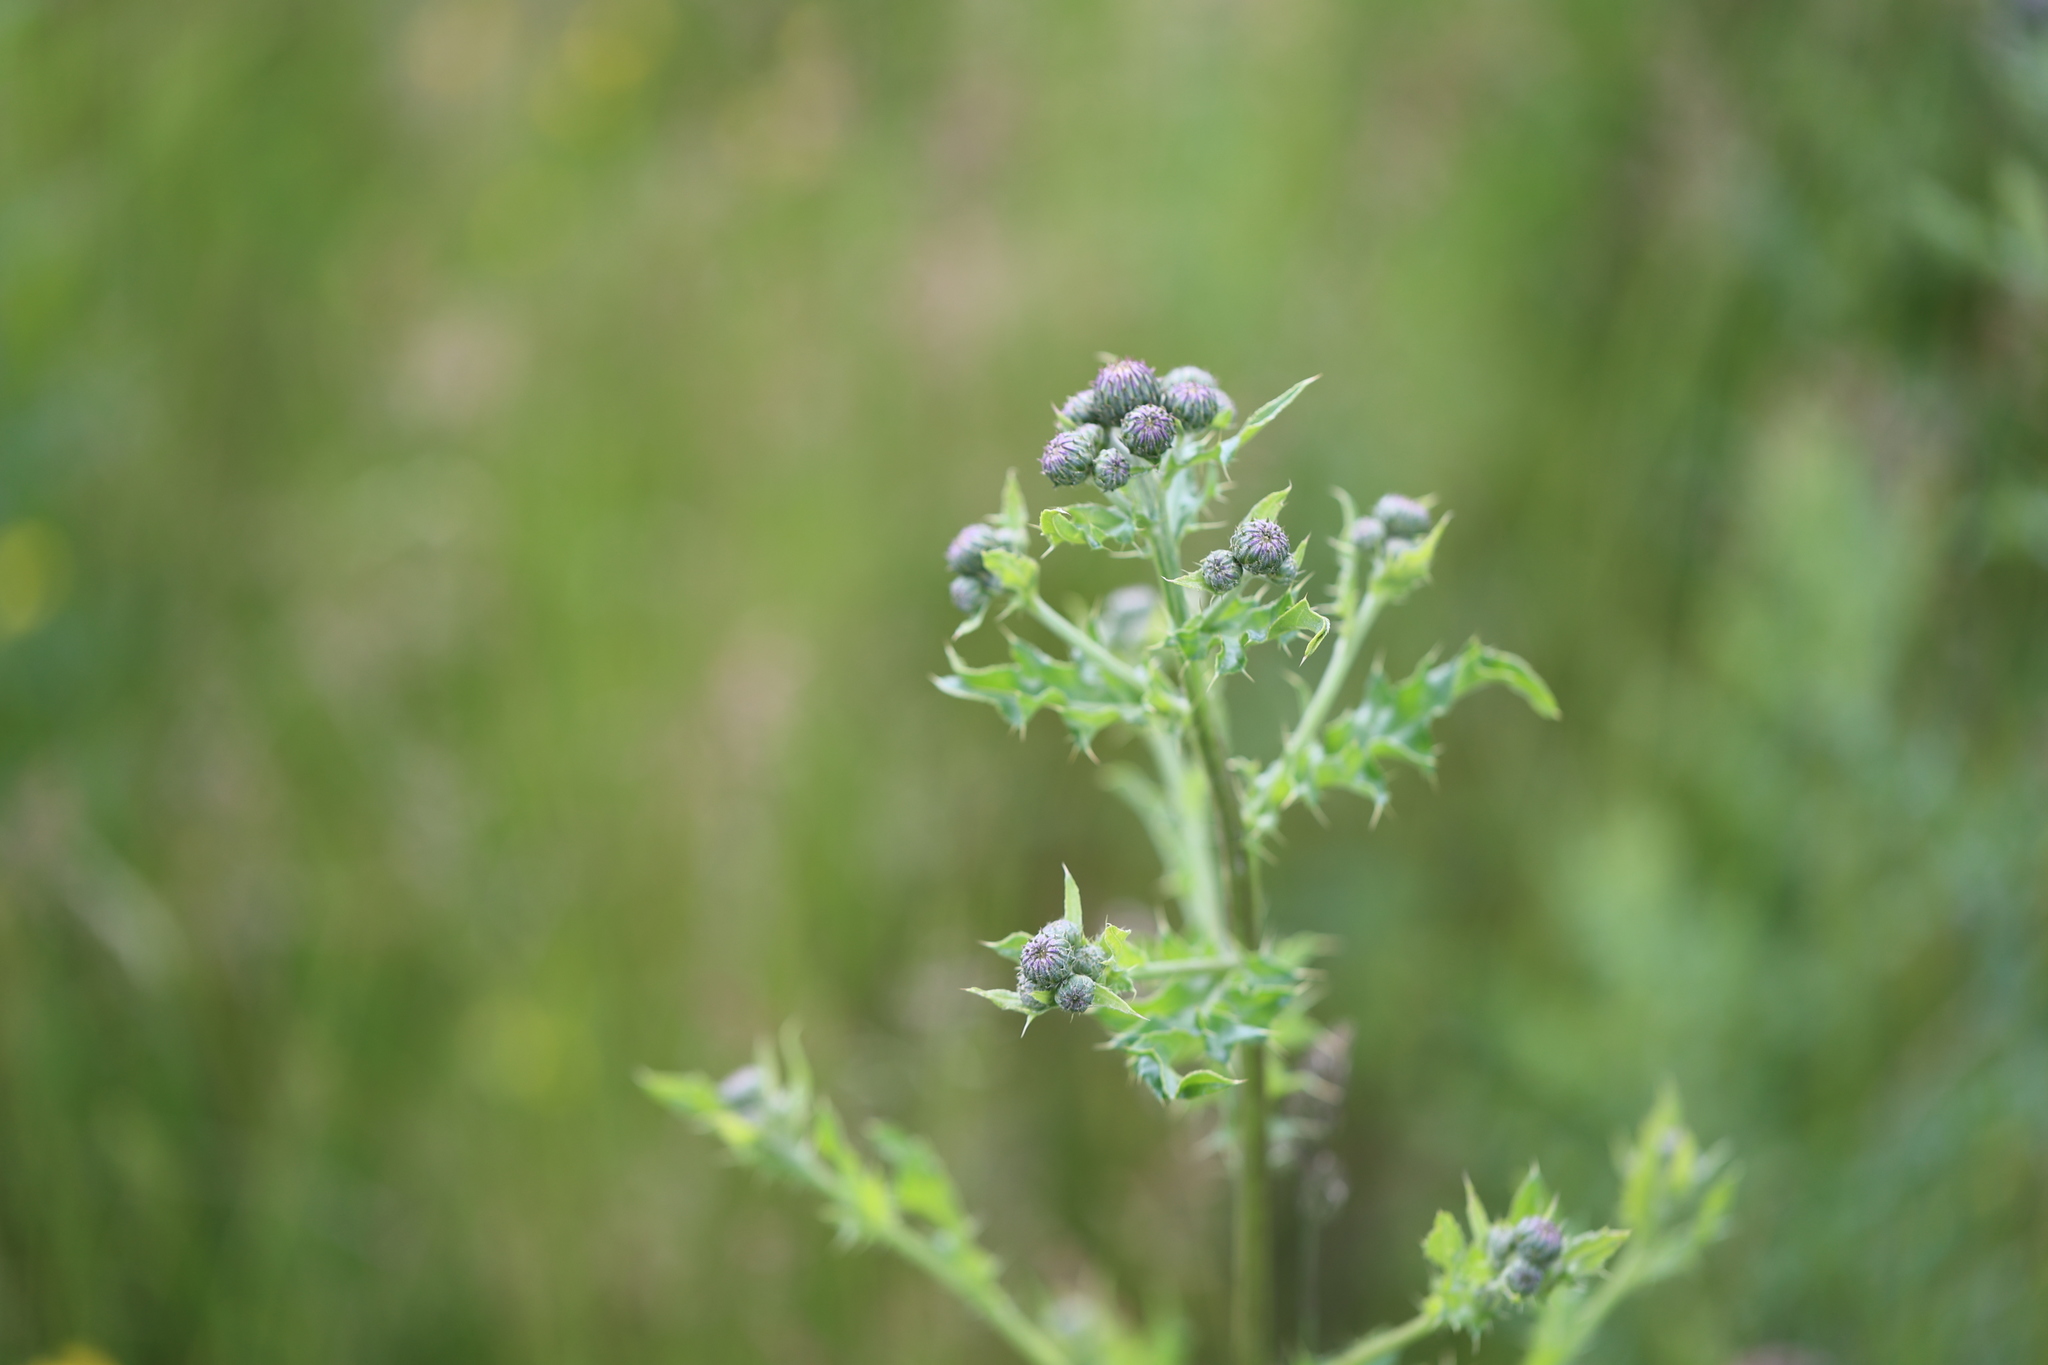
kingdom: Plantae
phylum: Tracheophyta
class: Magnoliopsida
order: Asterales
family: Asteraceae
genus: Cirsium
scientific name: Cirsium arvense
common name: Creeping thistle
